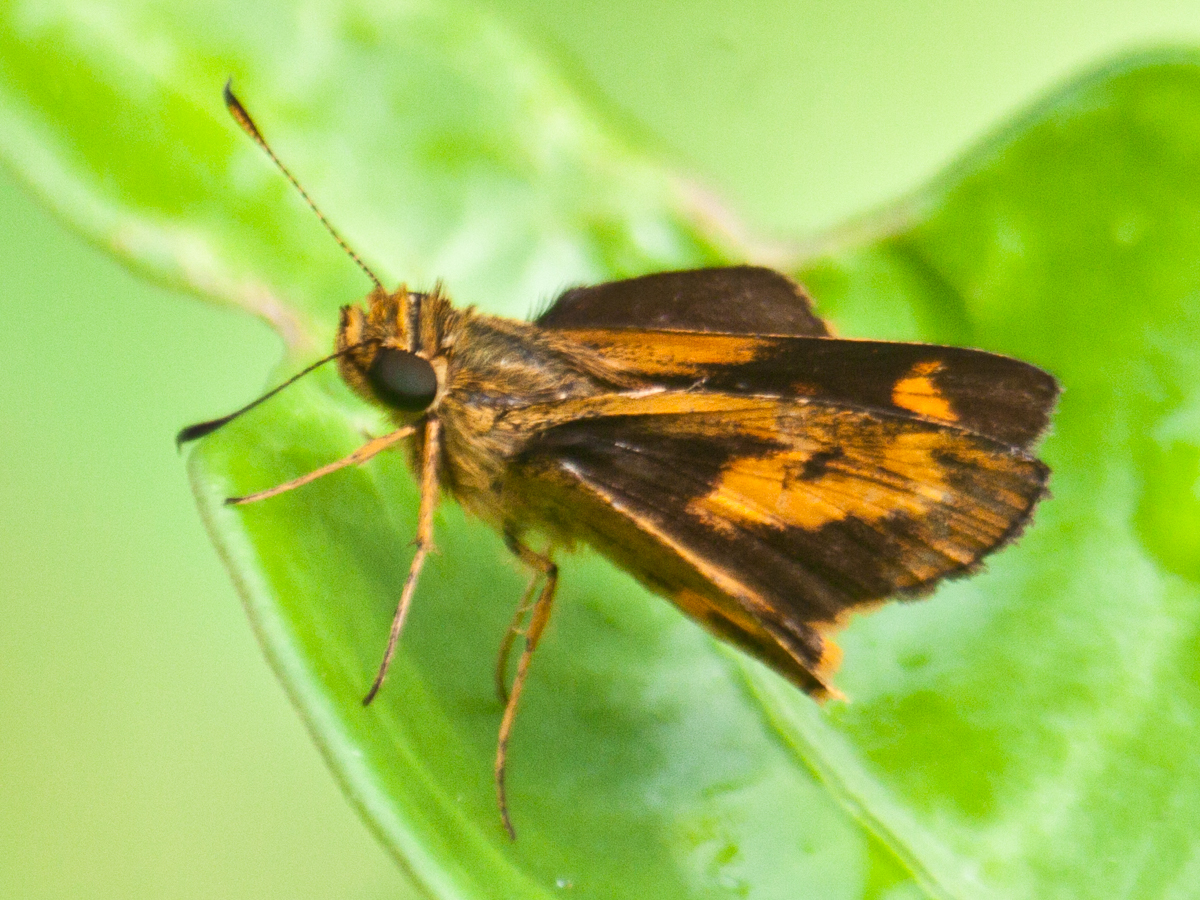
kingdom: Animalia
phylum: Arthropoda
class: Insecta
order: Lepidoptera
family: Hesperiidae
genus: Oriens
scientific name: Oriens gola
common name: Common dartlet
